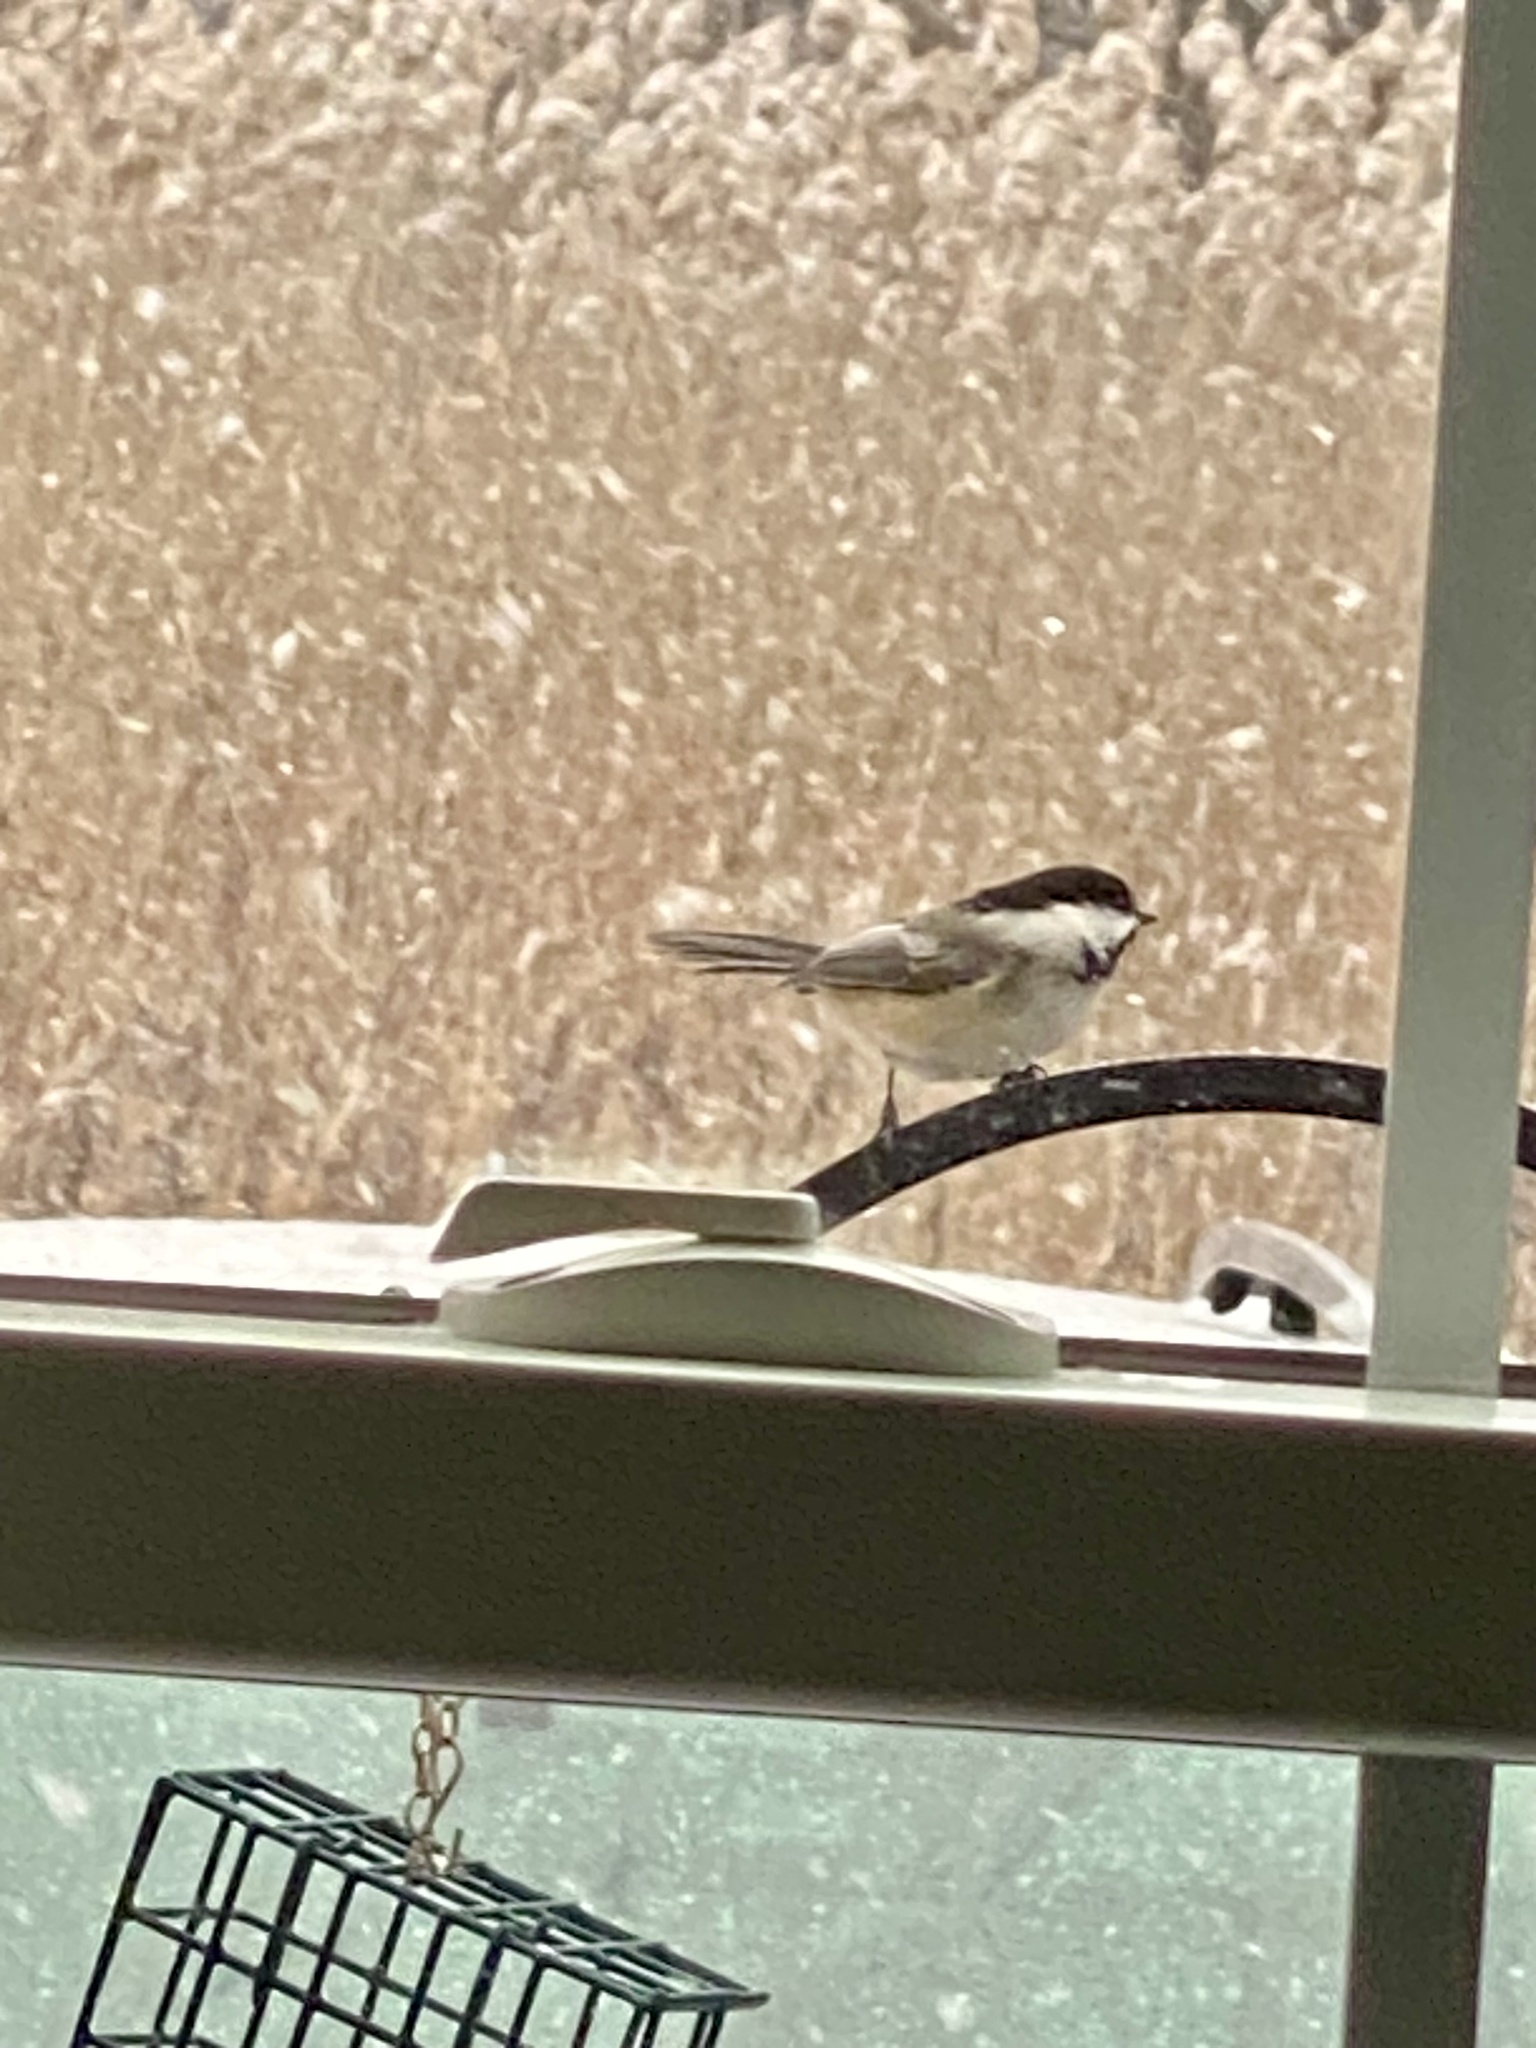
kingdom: Animalia
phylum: Chordata
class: Aves
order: Passeriformes
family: Paridae
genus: Poecile
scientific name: Poecile atricapillus
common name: Black-capped chickadee
